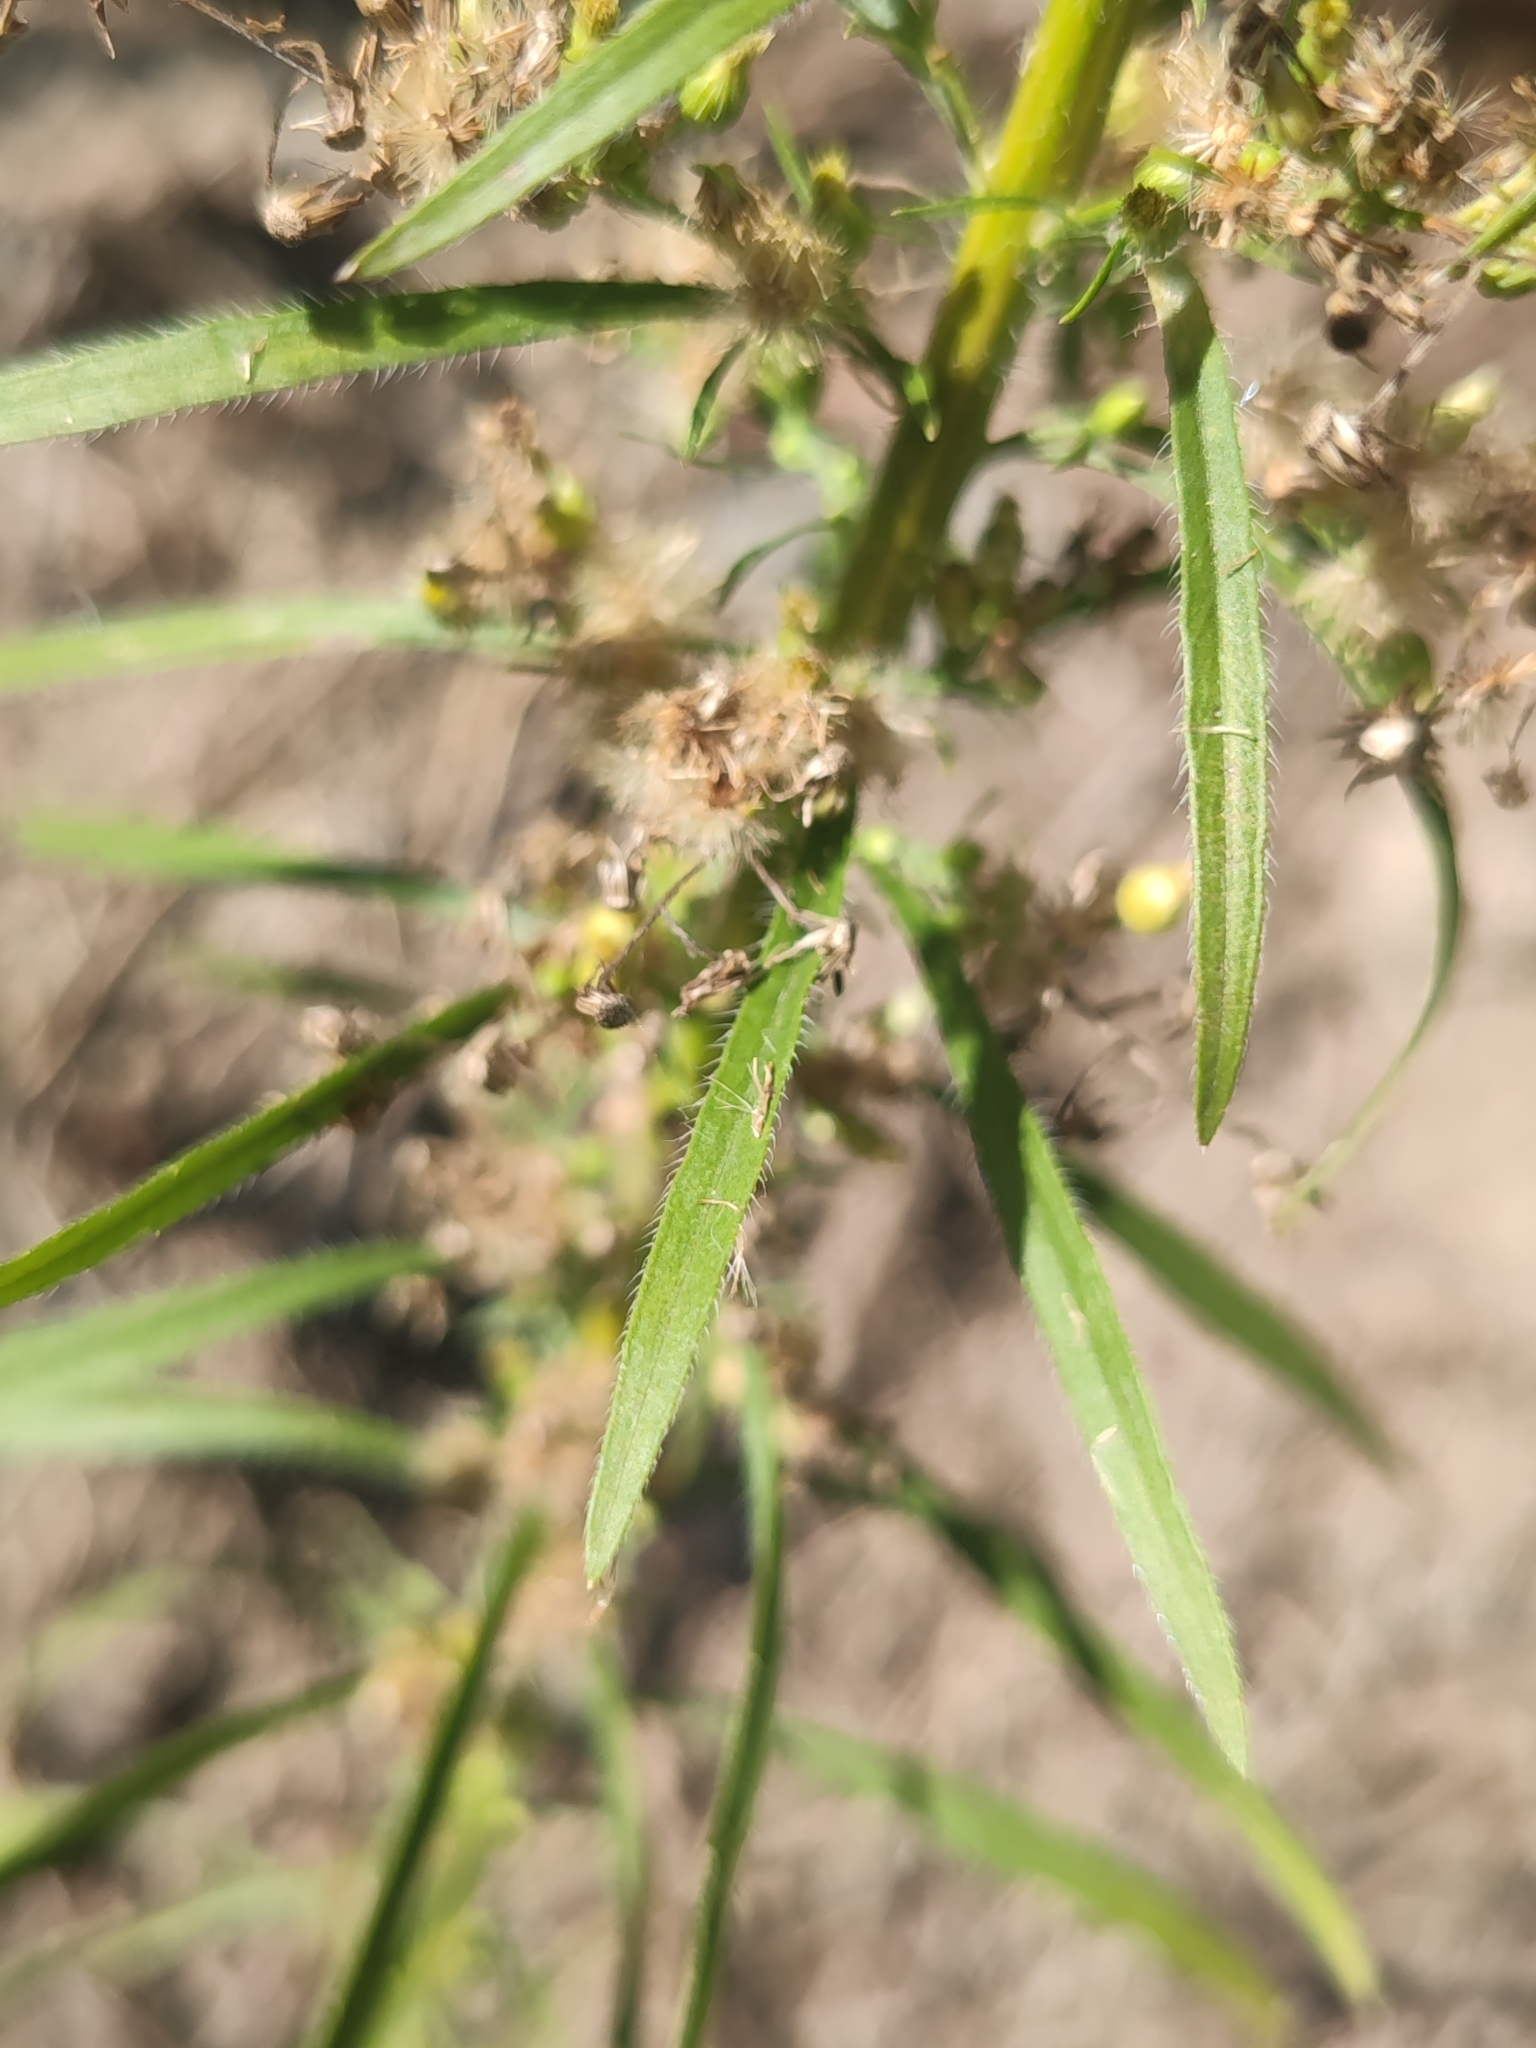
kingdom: Plantae
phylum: Tracheophyta
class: Magnoliopsida
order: Asterales
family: Asteraceae
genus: Erigeron
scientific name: Erigeron canadensis
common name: Canadian fleabane
